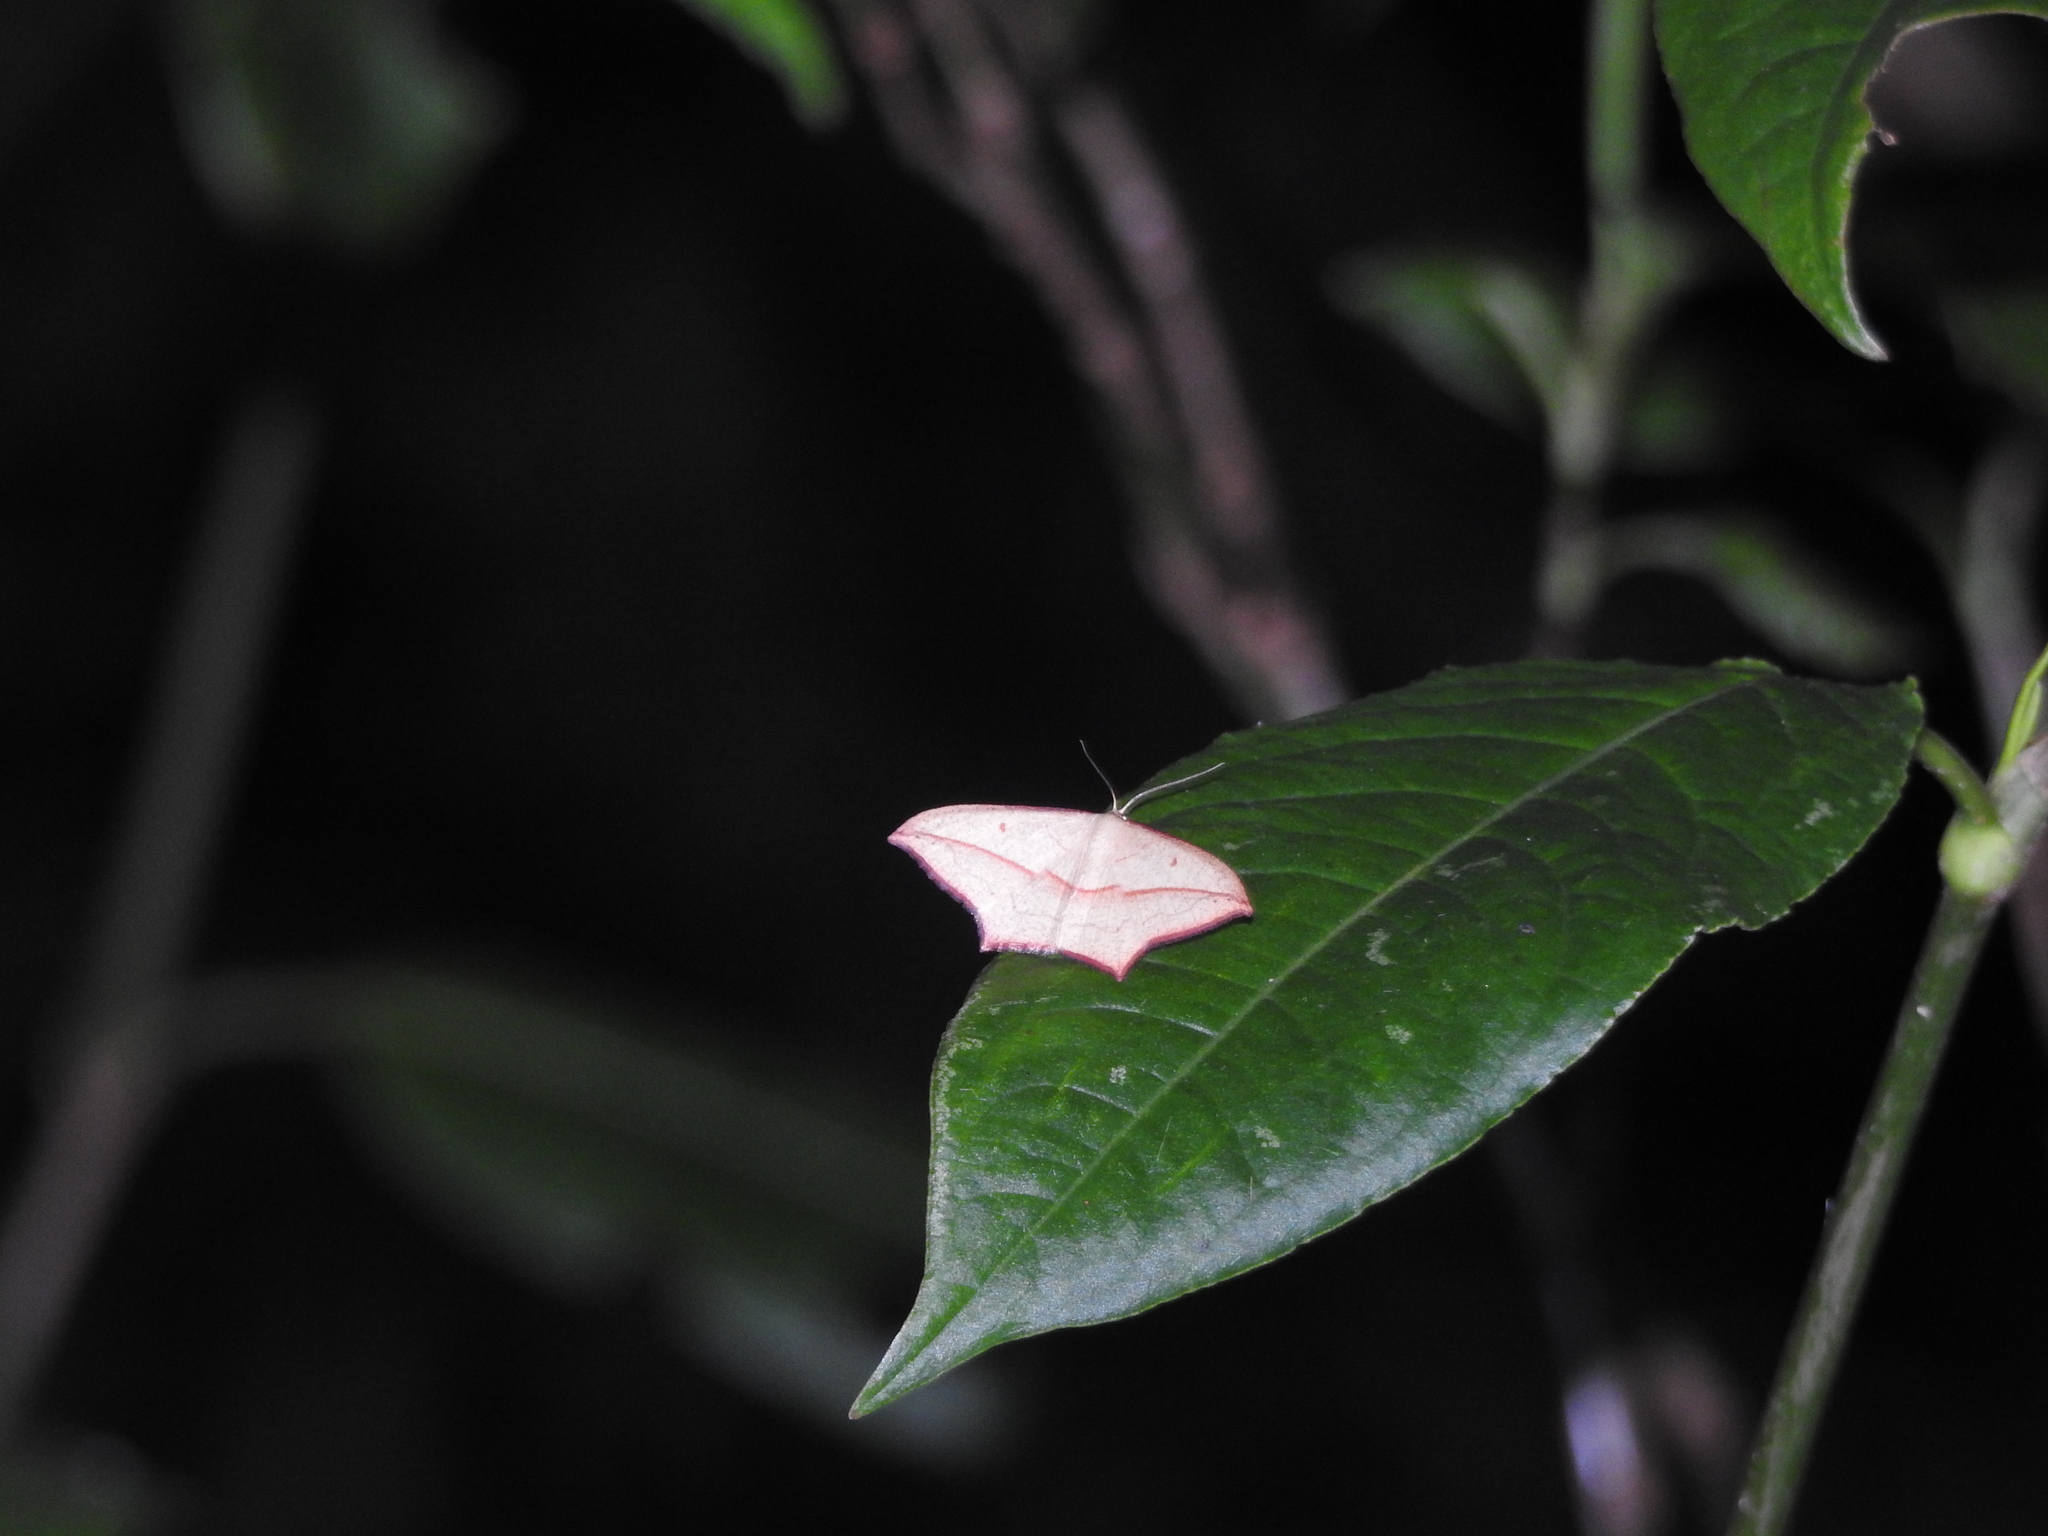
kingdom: Animalia
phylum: Arthropoda
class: Insecta
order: Lepidoptera
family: Geometridae
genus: Timandra
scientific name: Timandra convectaria
